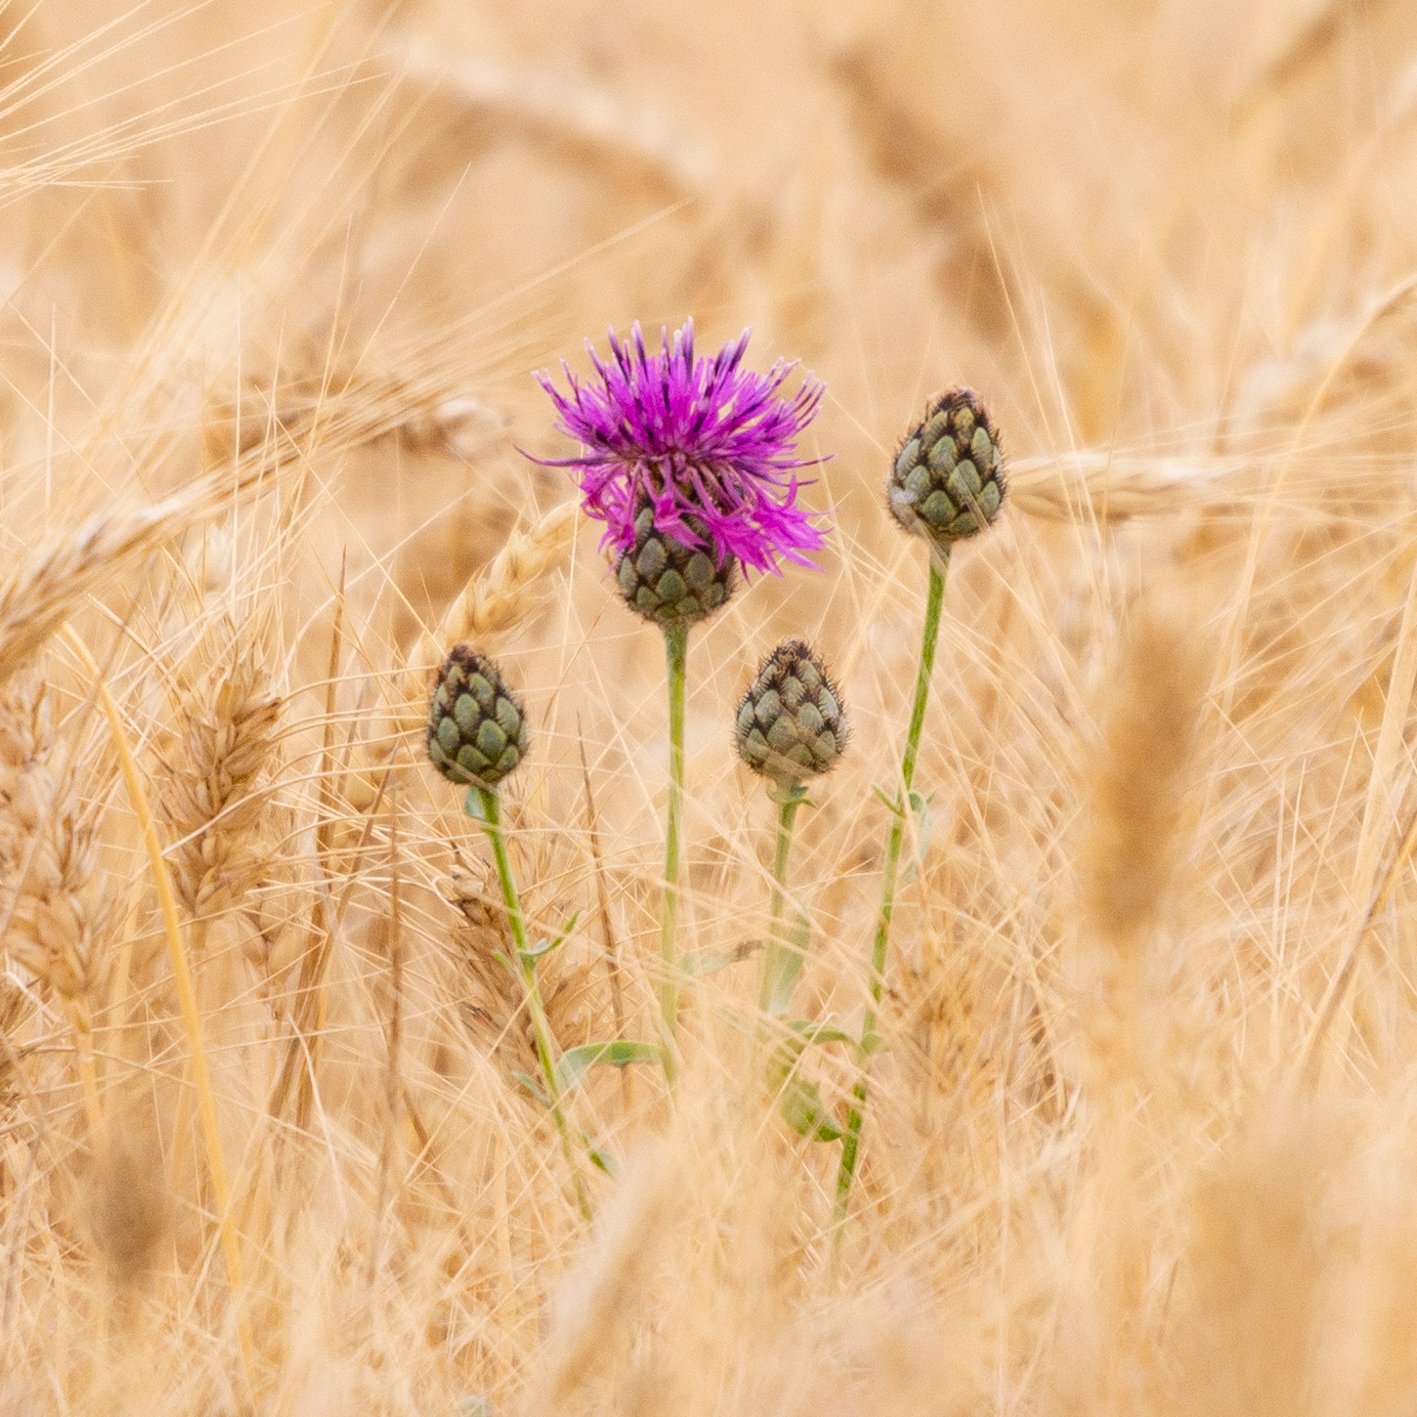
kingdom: Plantae
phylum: Tracheophyta
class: Magnoliopsida
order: Asterales
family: Asteraceae
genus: Centaurea
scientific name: Centaurea scabiosa
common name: Greater knapweed
